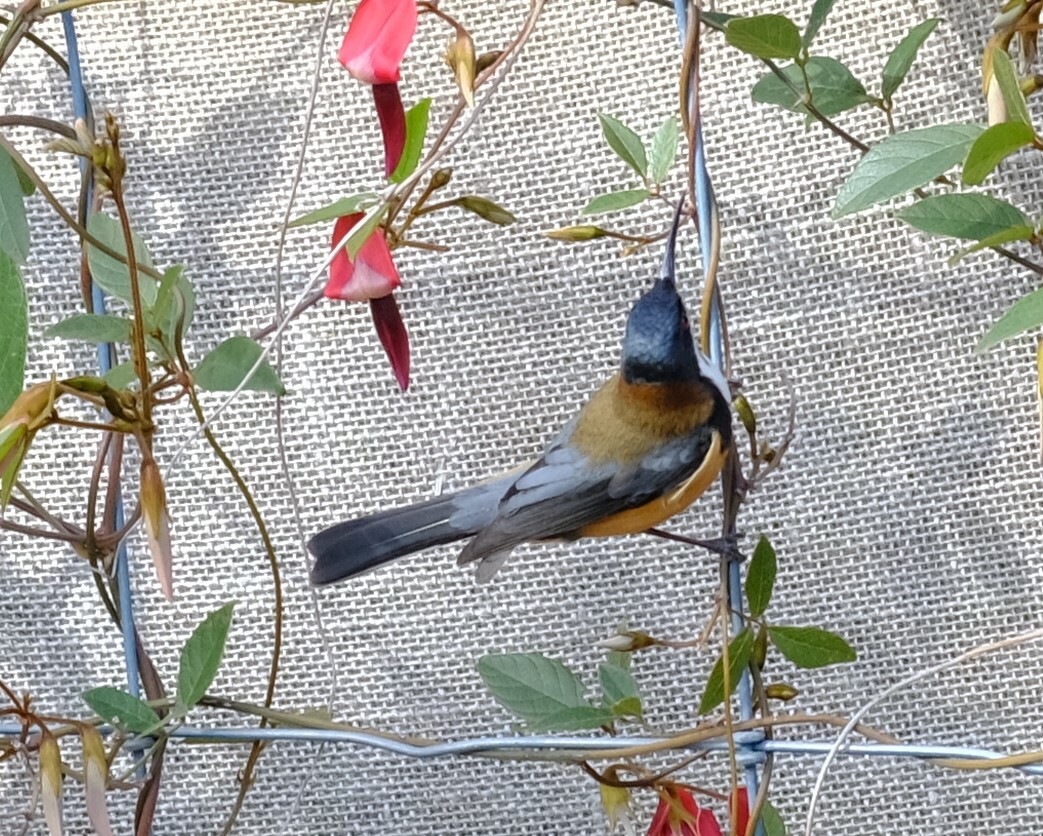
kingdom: Animalia
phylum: Chordata
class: Aves
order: Passeriformes
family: Meliphagidae
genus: Acanthorhynchus
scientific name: Acanthorhynchus tenuirostris
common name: Eastern spinebill
